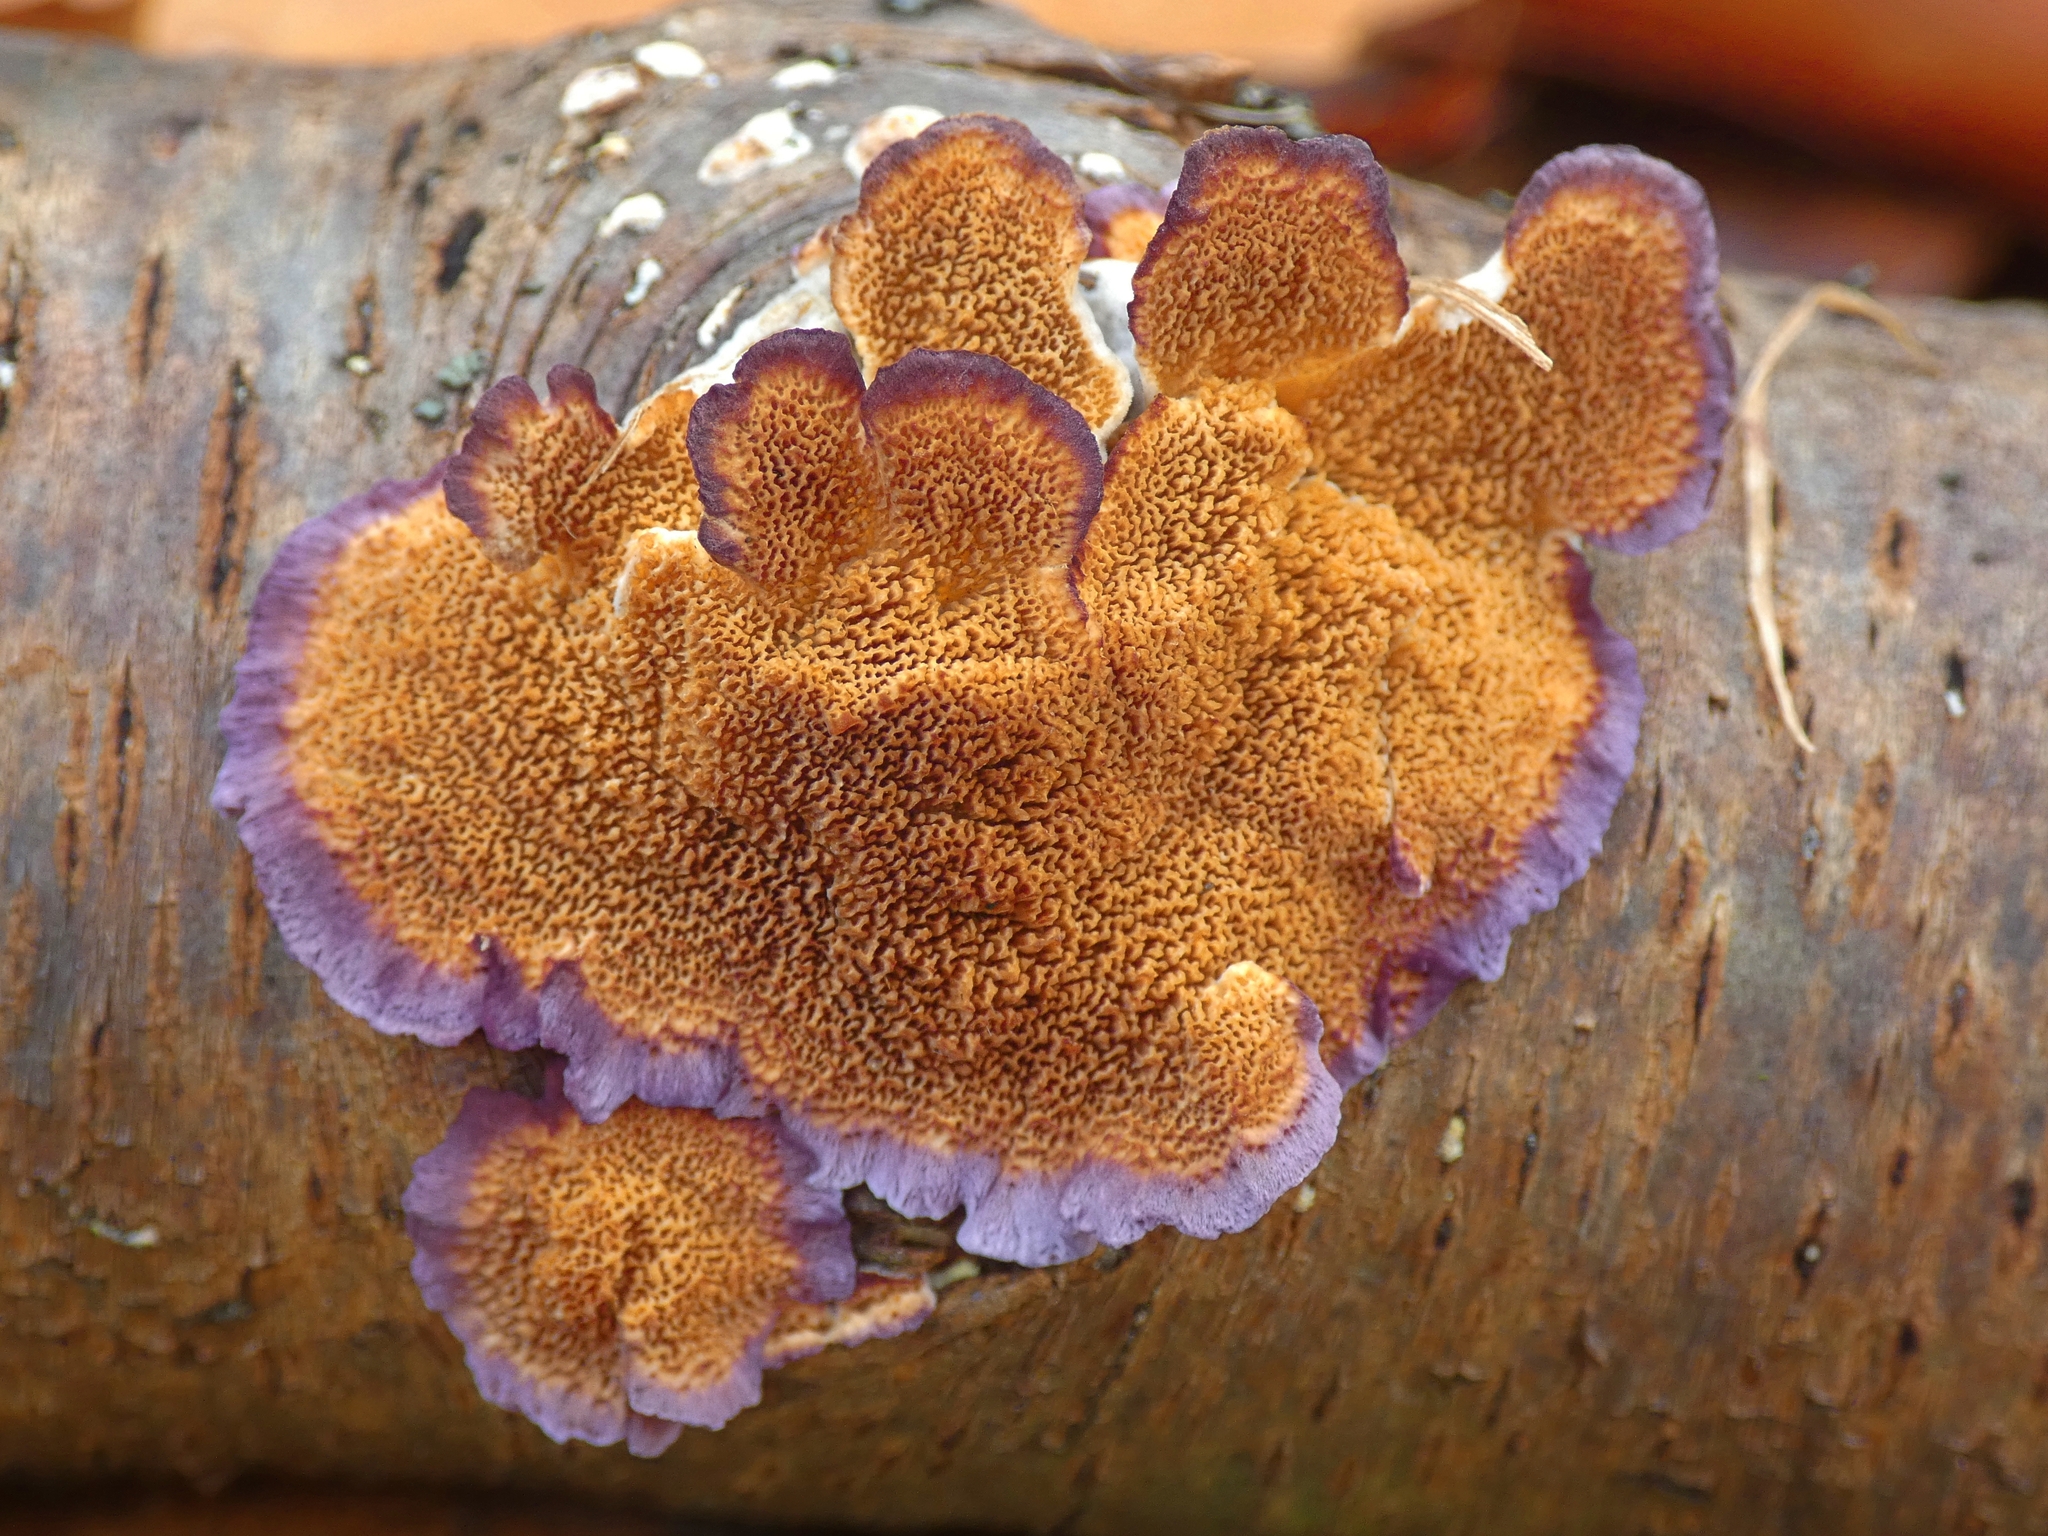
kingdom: Fungi
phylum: Basidiomycota
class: Agaricomycetes
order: Hymenochaetales
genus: Trichaptum
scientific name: Trichaptum biforme
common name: Violet-toothed polypore
